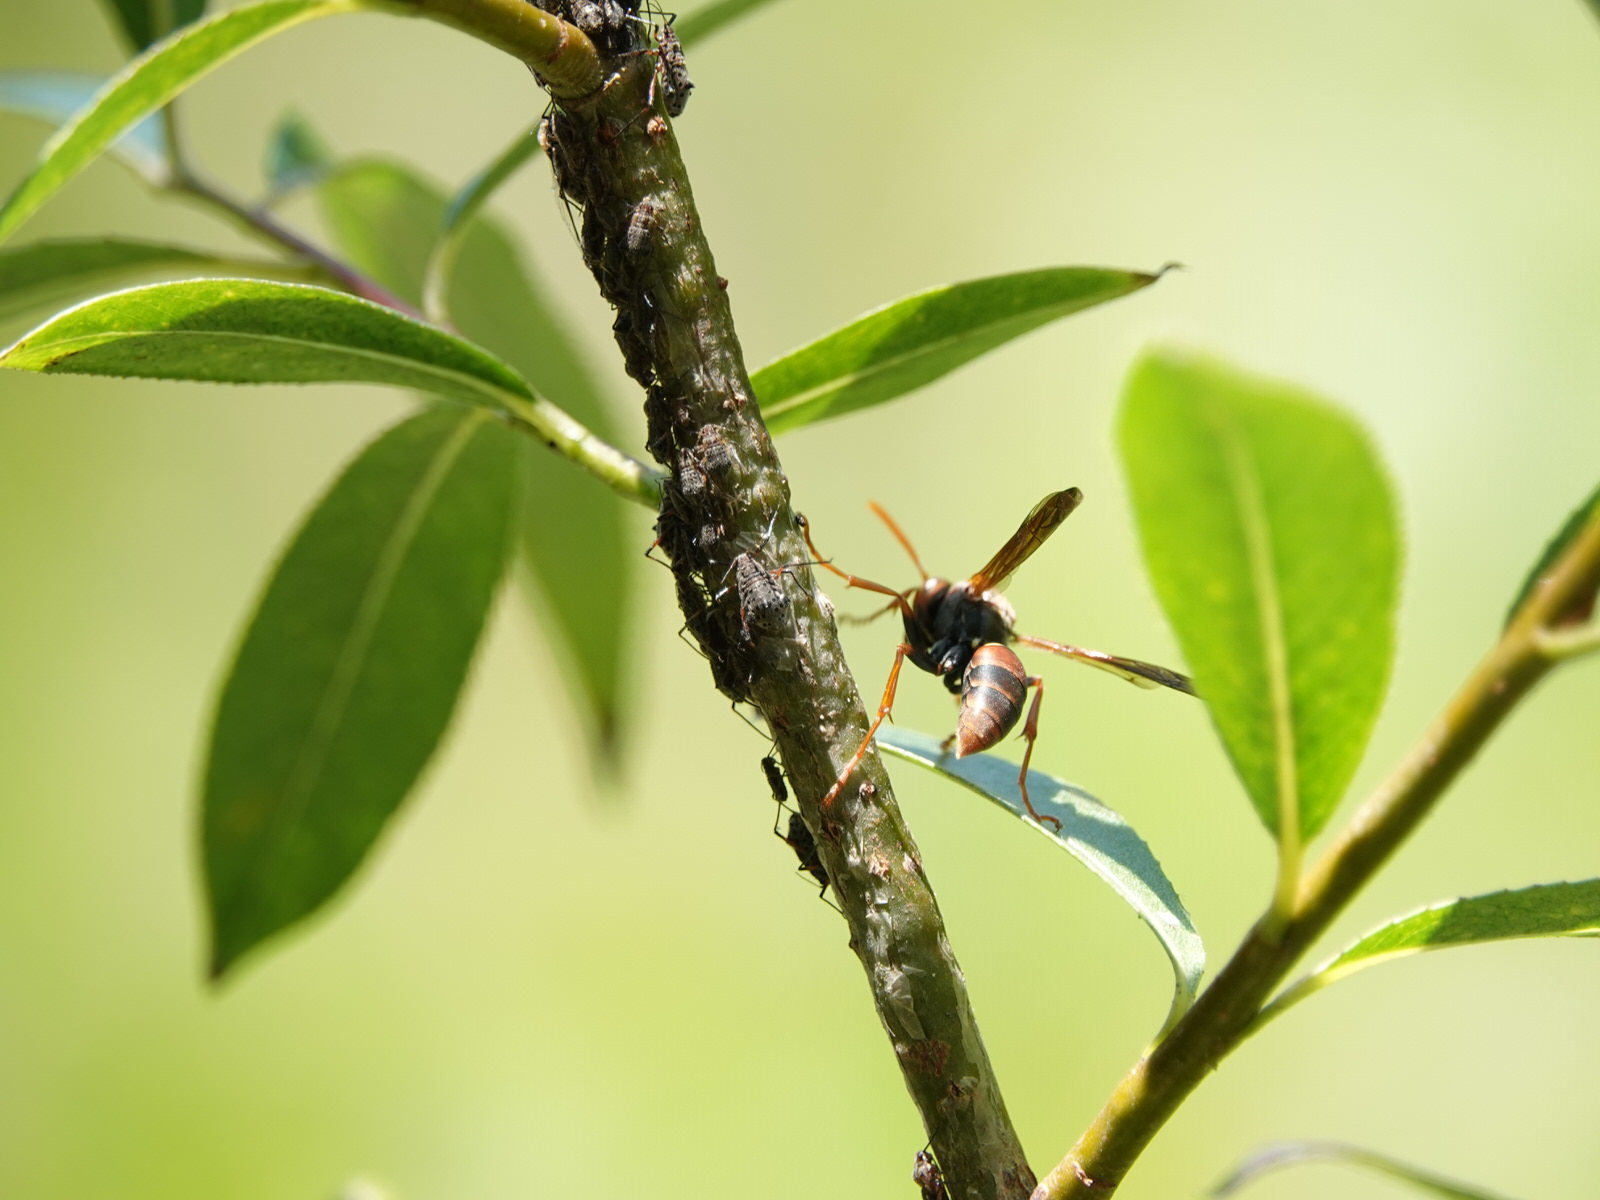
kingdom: Animalia
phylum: Arthropoda
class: Insecta
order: Hymenoptera
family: Eumenidae
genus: Polistes
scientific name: Polistes humilis
